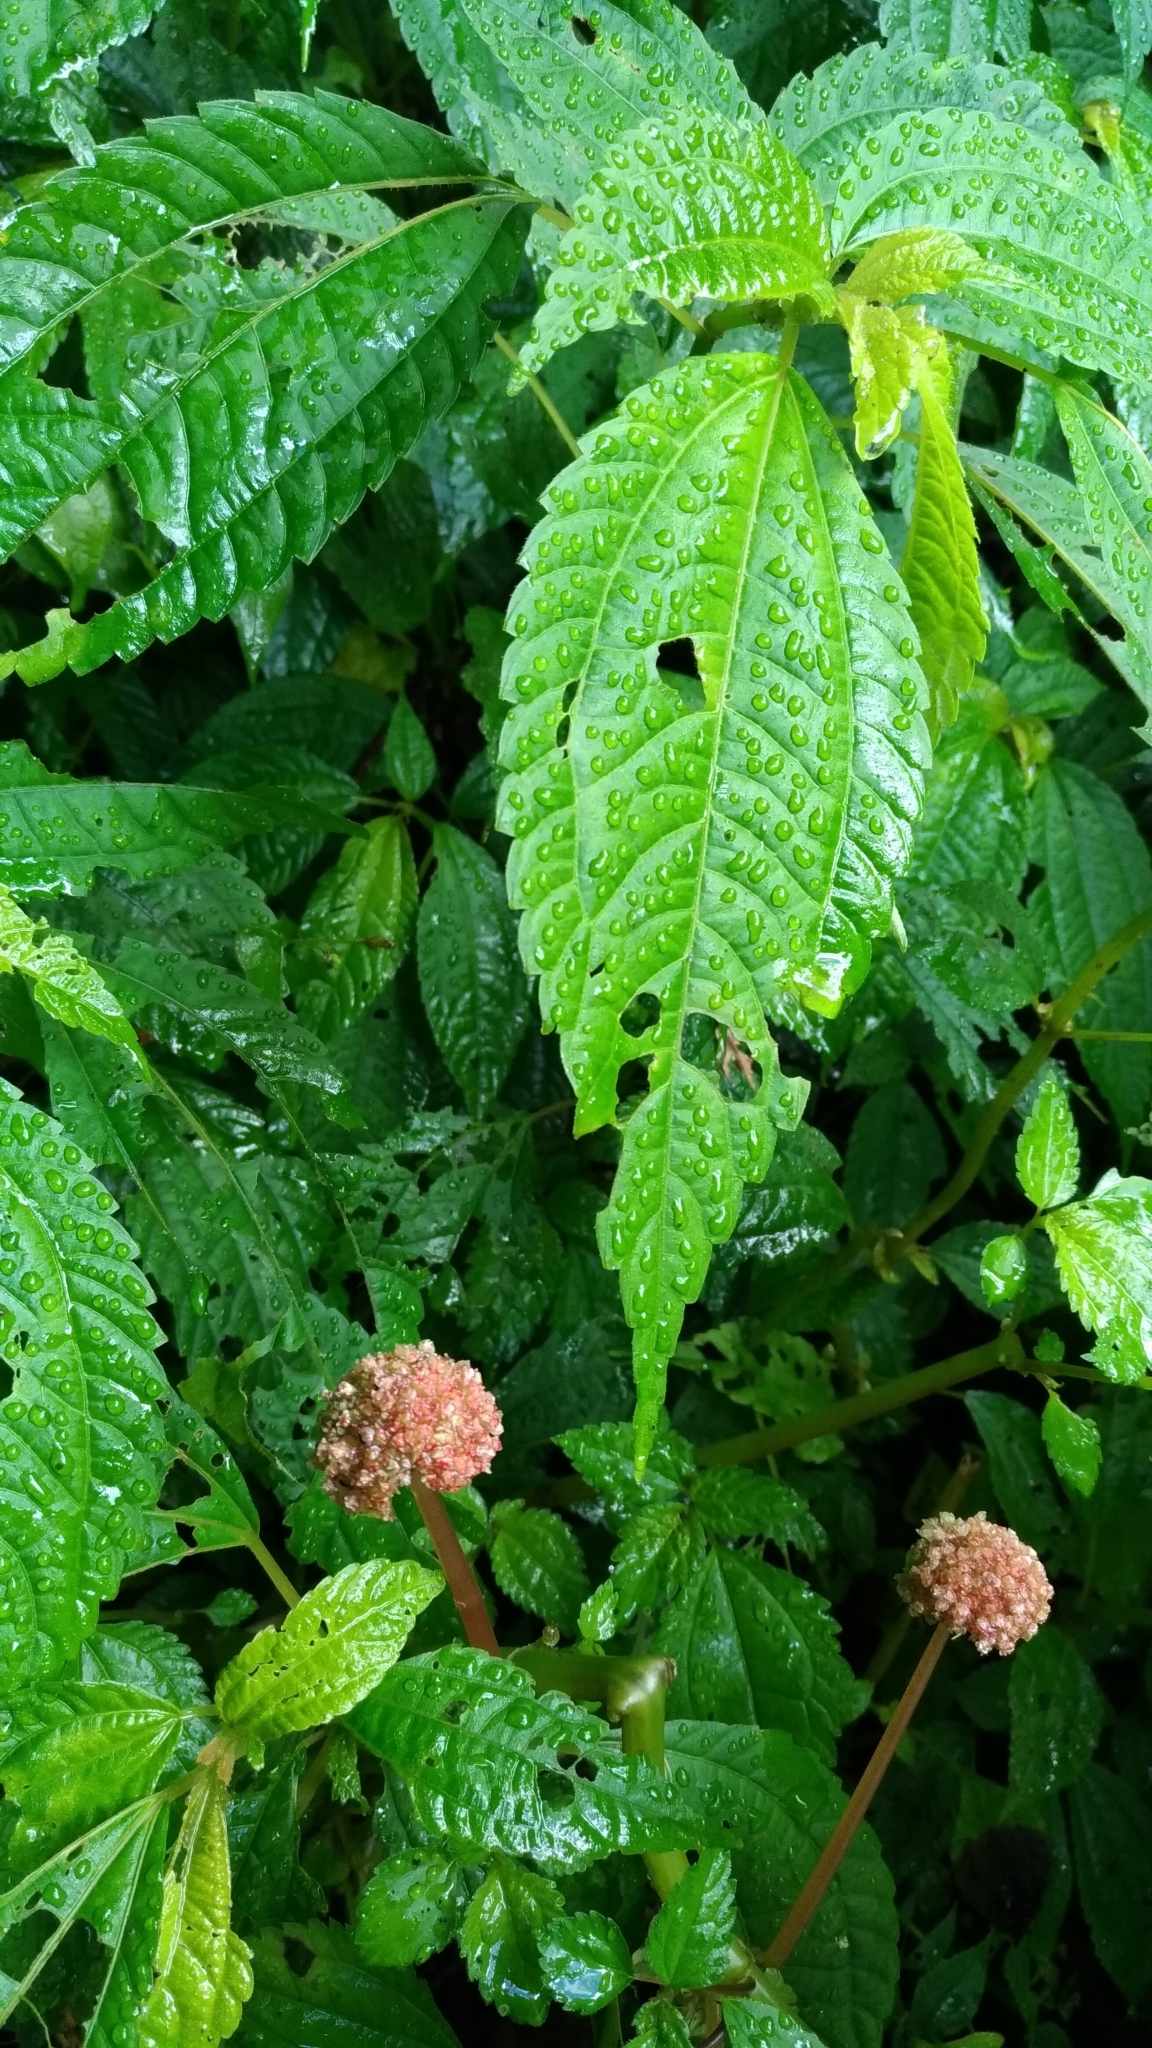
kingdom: Plantae
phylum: Tracheophyta
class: Magnoliopsida
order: Rosales
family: Urticaceae
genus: Lecanthus
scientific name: Lecanthus peduncularis
